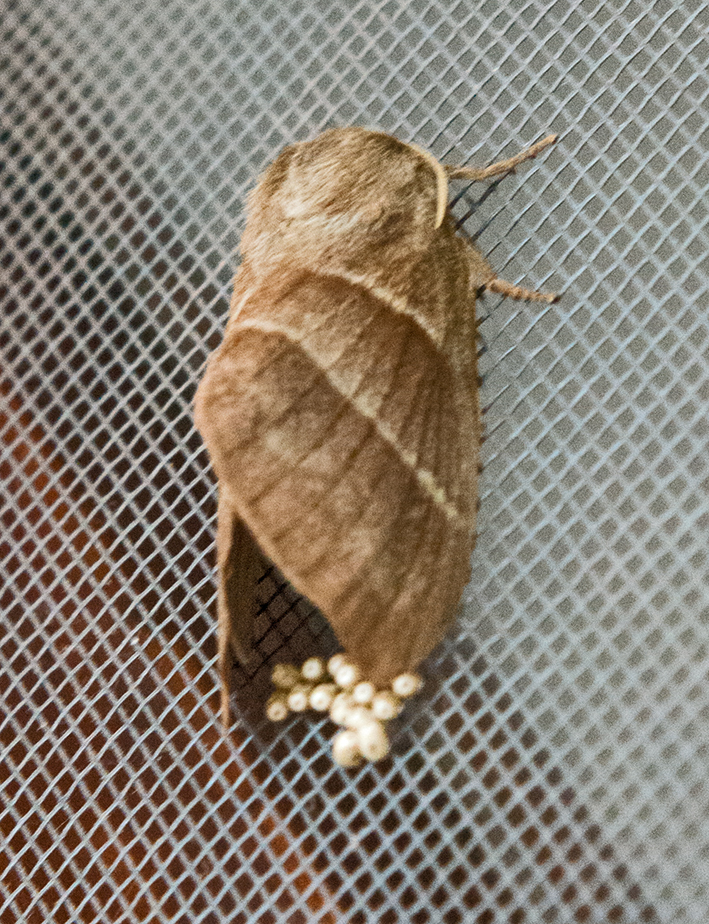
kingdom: Animalia
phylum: Arthropoda
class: Insecta
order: Lepidoptera
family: Lasiocampidae
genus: Macrothylacia
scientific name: Macrothylacia rubi
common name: Fox moth
